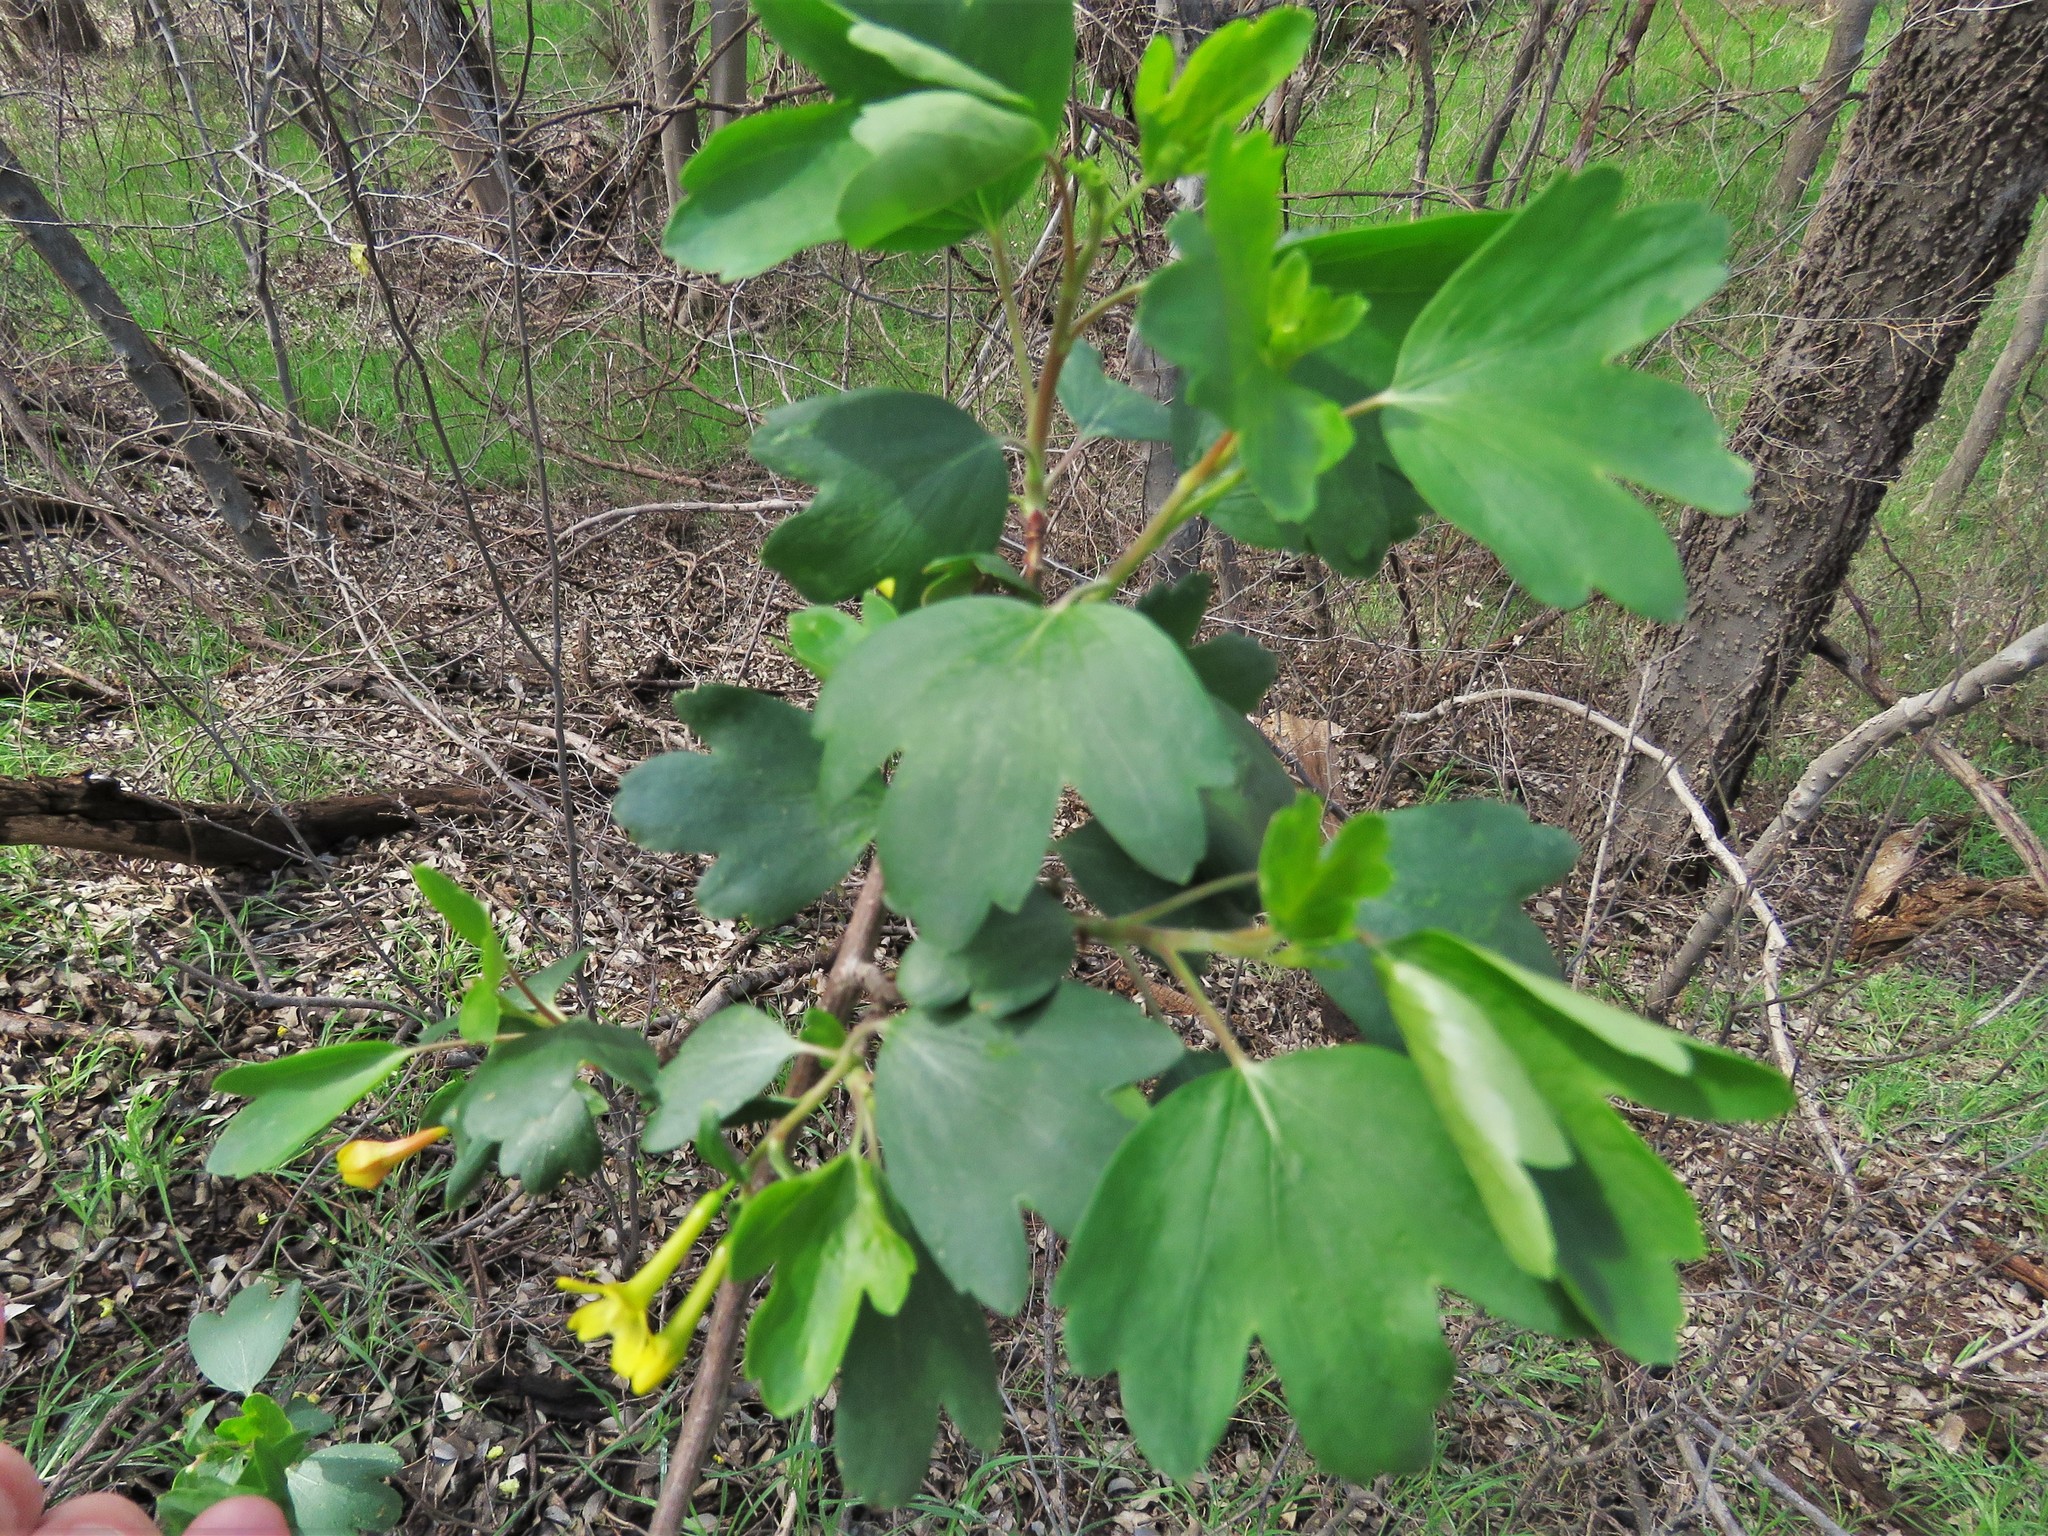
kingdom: Plantae
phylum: Tracheophyta
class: Magnoliopsida
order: Saxifragales
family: Grossulariaceae
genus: Ribes
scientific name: Ribes aureum
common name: Golden currant
